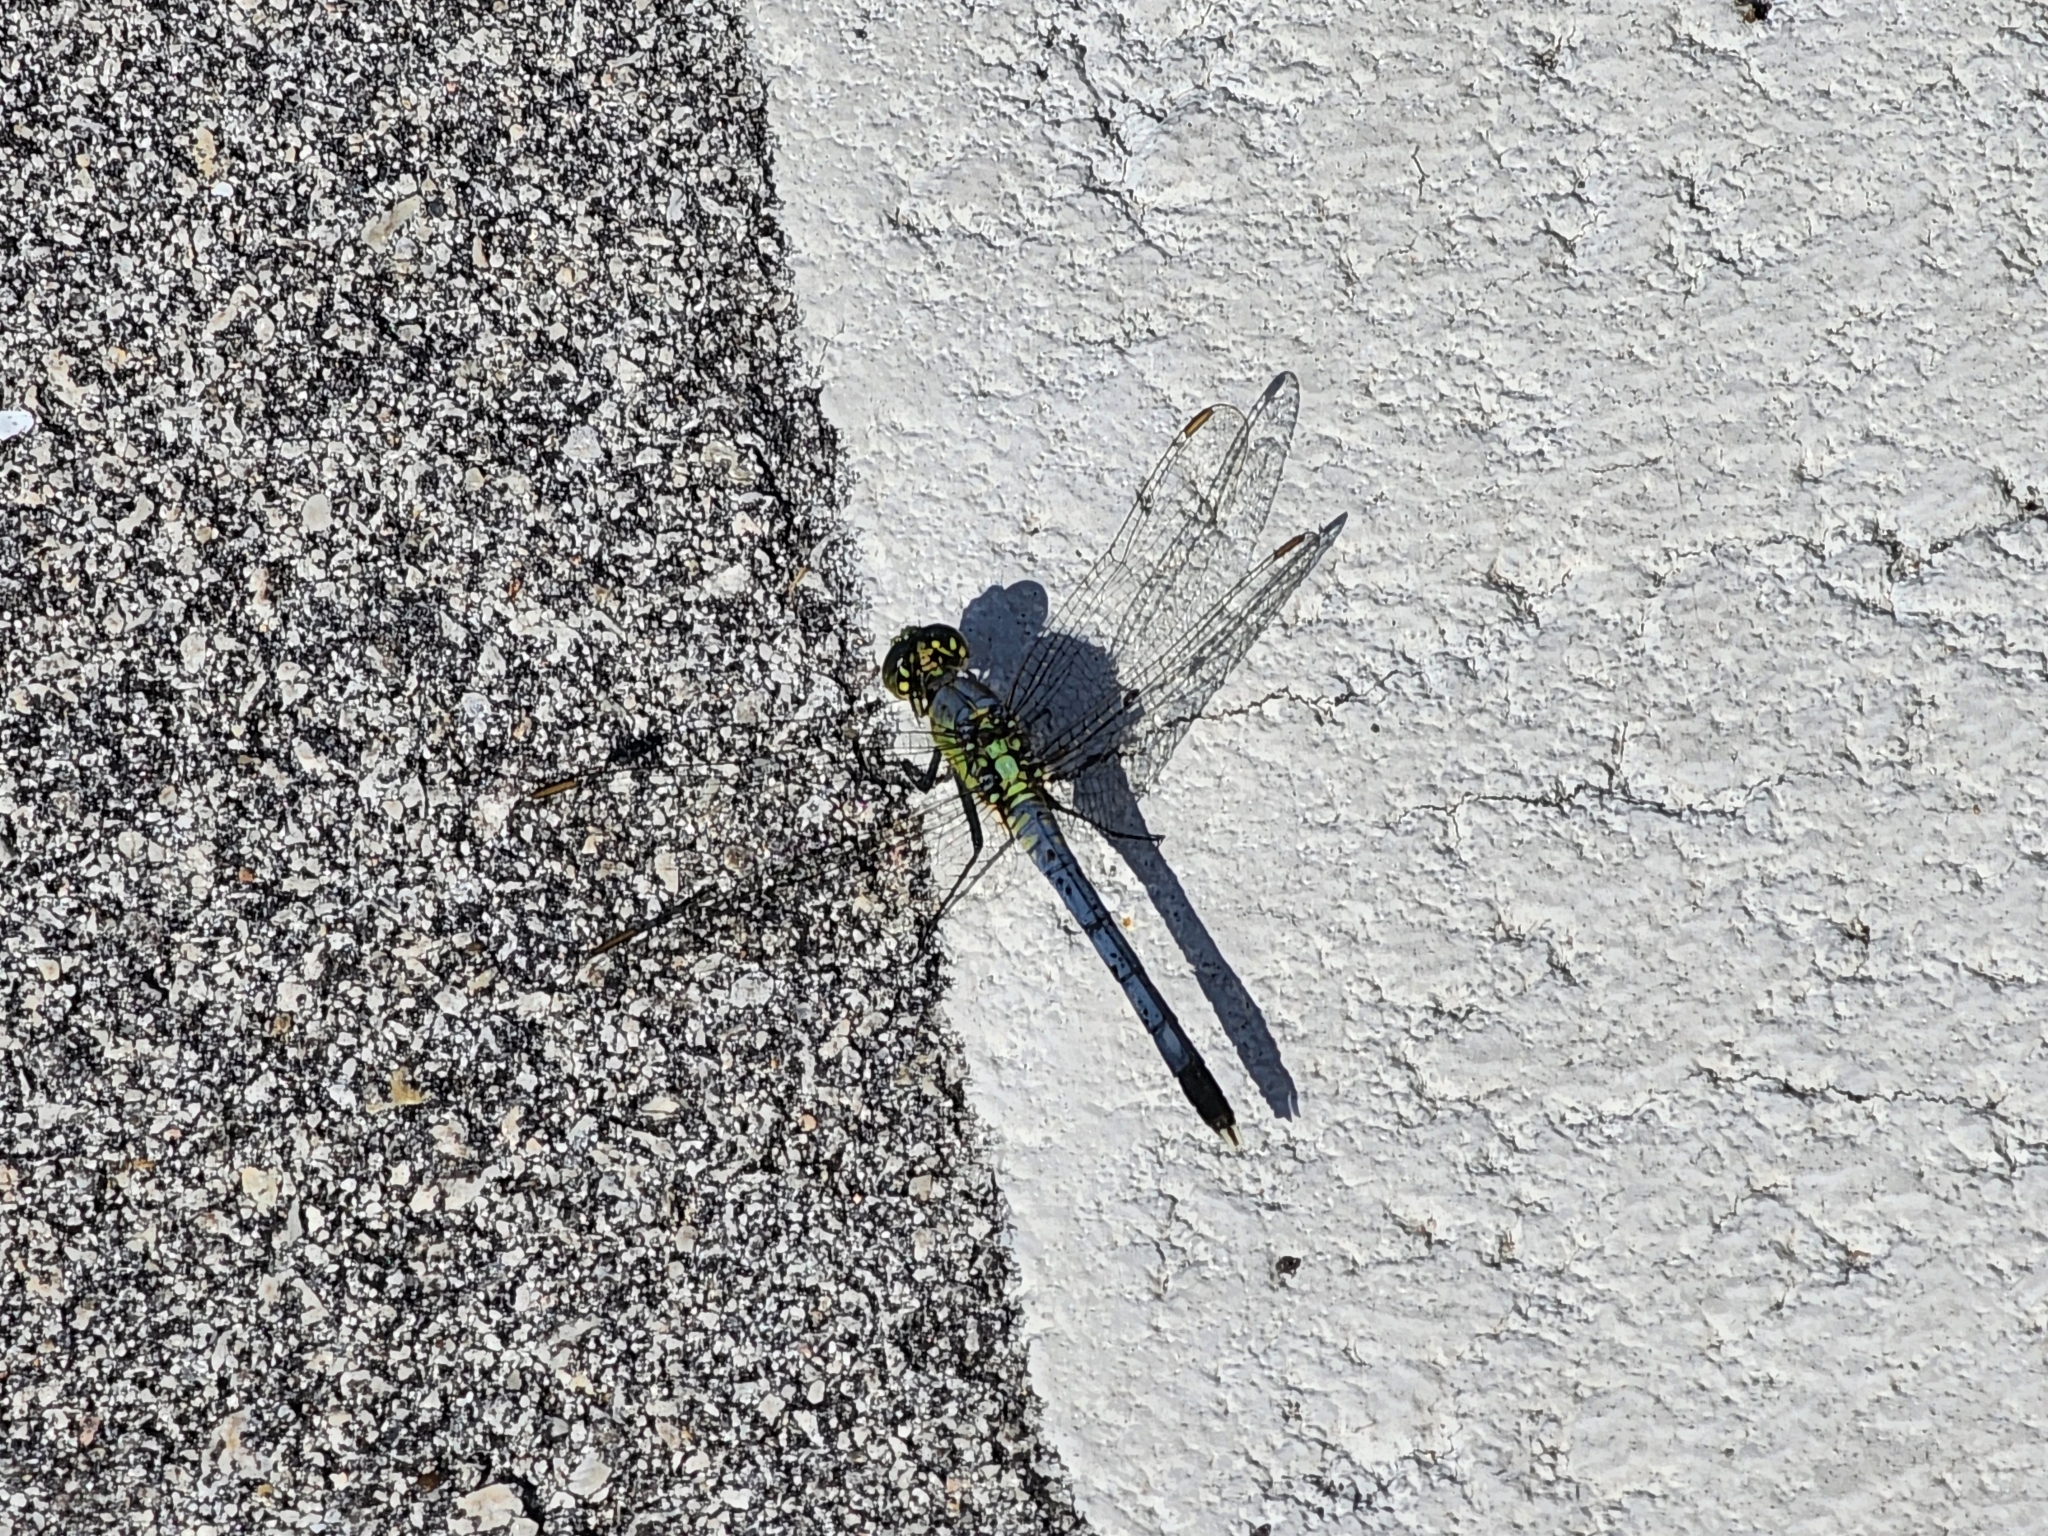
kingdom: Animalia
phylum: Arthropoda
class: Insecta
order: Odonata
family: Libellulidae
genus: Erythemis
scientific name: Erythemis simplicicollis
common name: Eastern pondhawk
